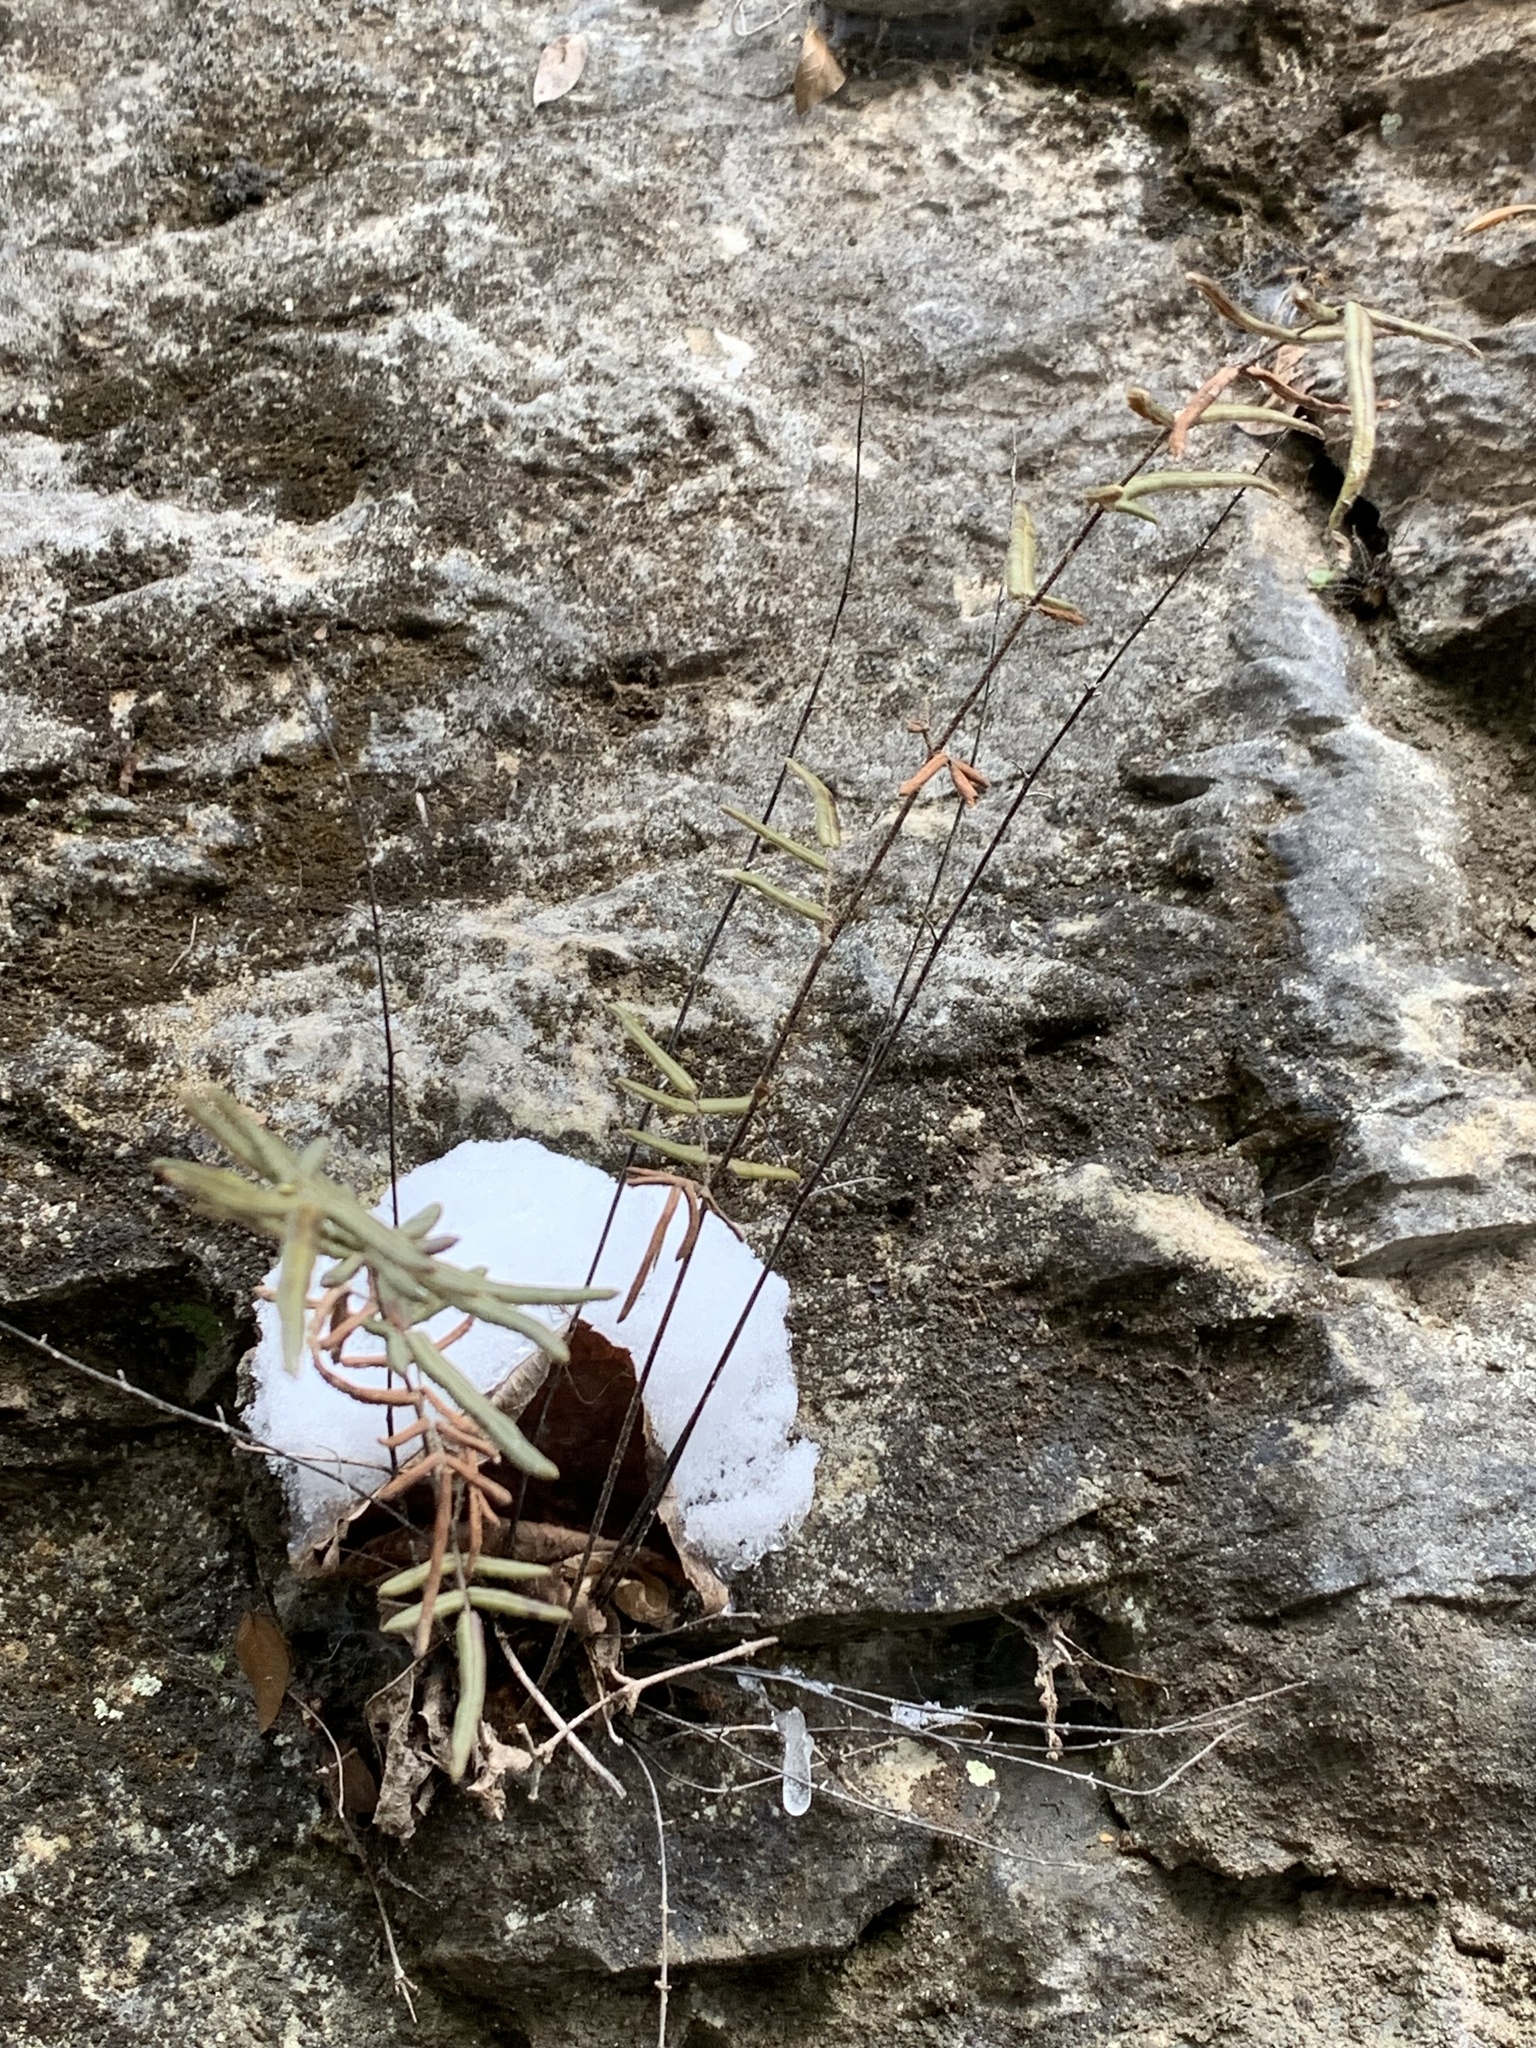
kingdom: Plantae
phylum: Tracheophyta
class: Polypodiopsida
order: Polypodiales
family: Pteridaceae
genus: Pellaea
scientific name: Pellaea atropurpurea
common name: Hairy cliffbrake
